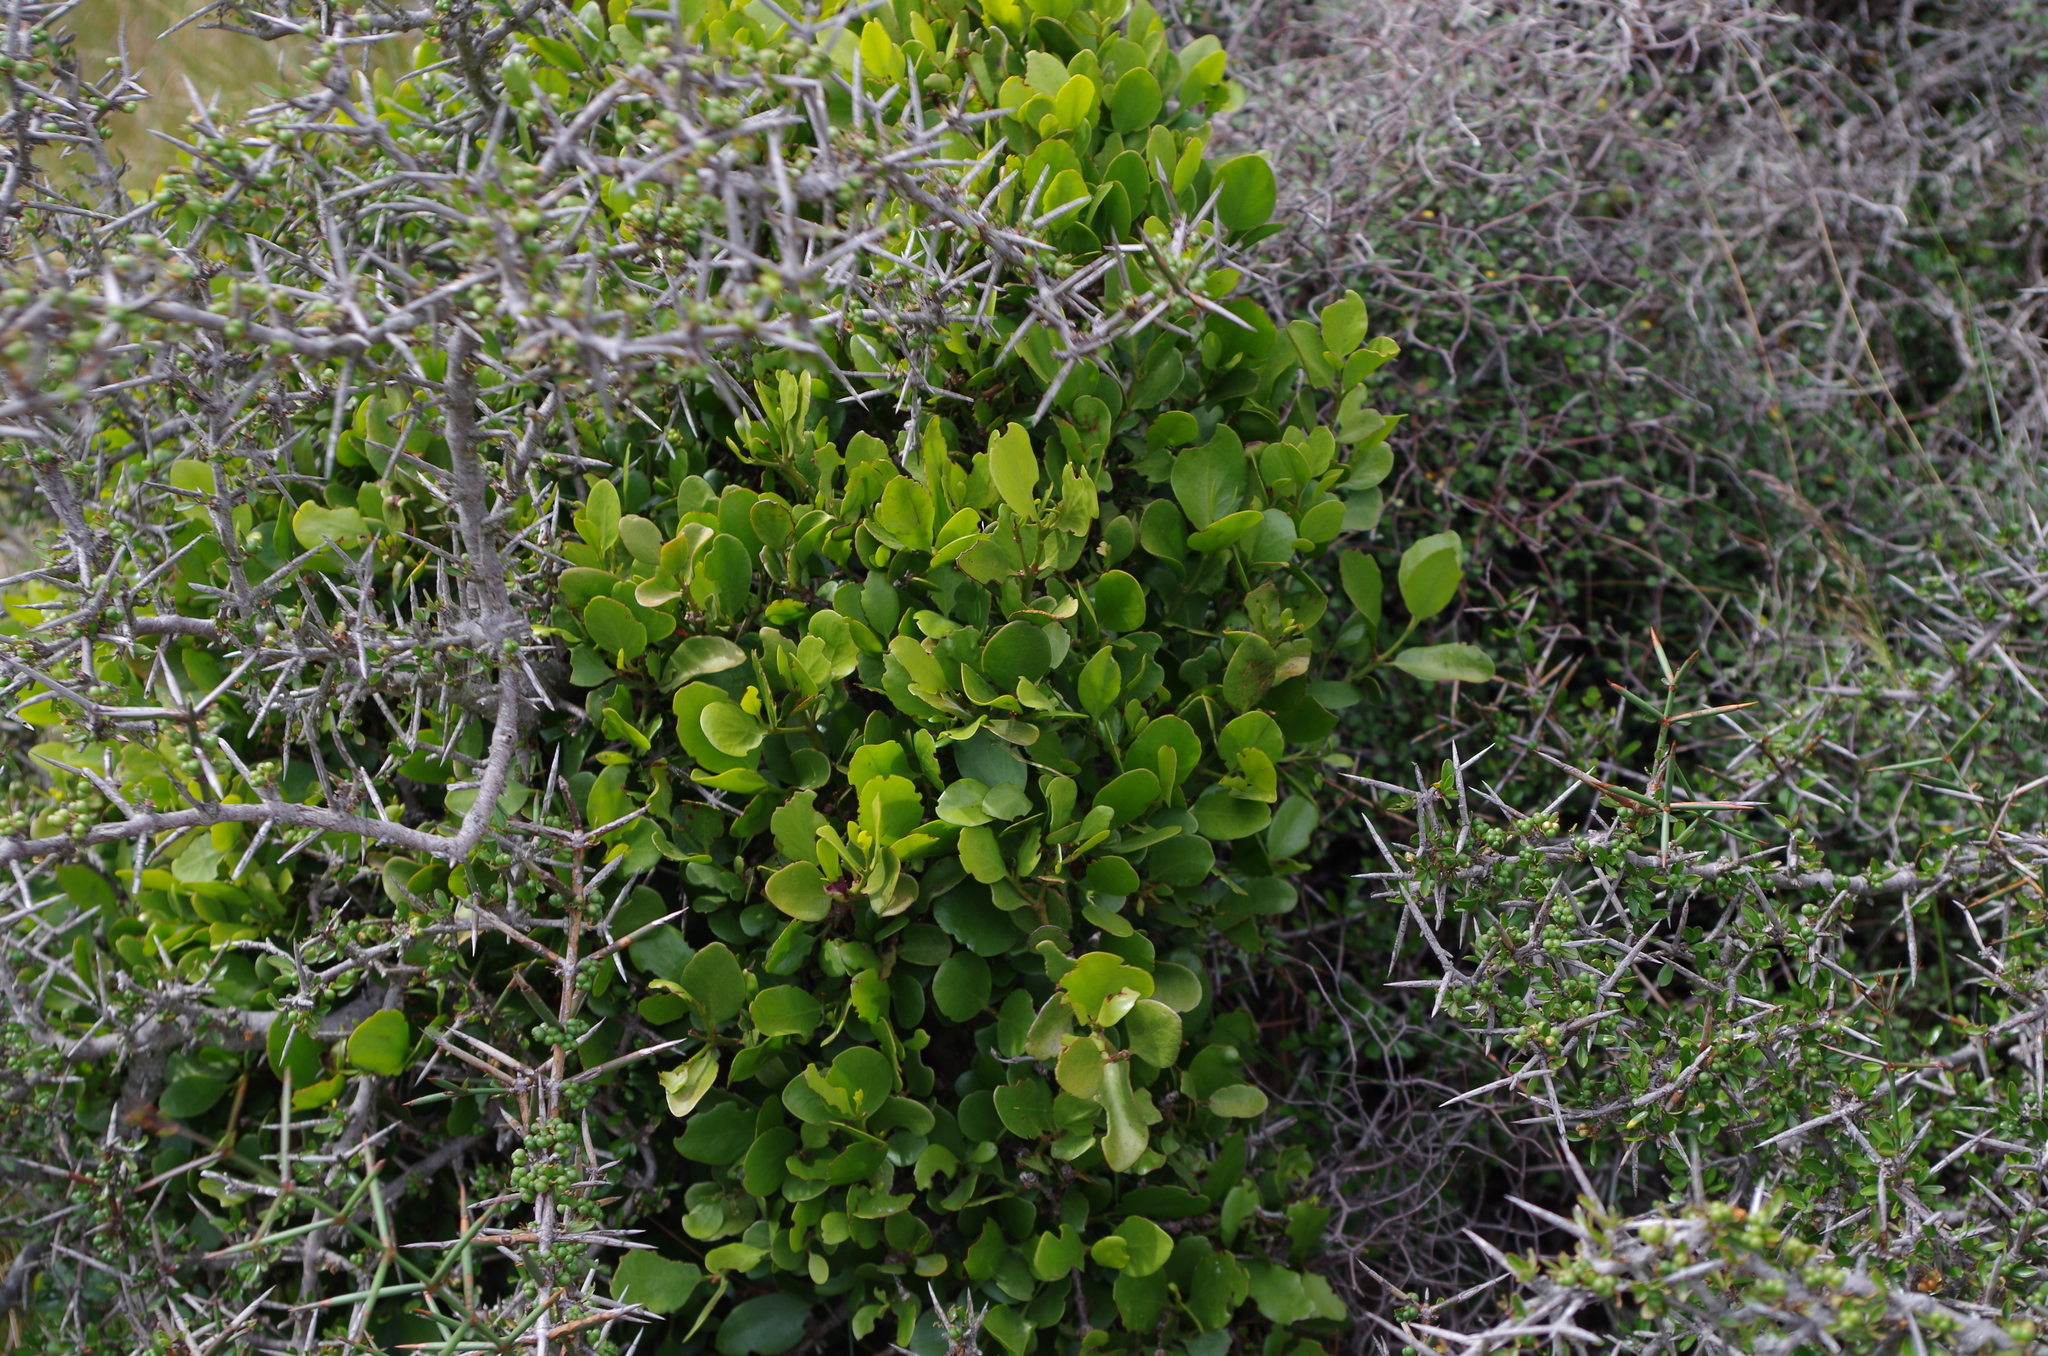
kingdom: Plantae
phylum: Tracheophyta
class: Magnoliopsida
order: Santalales
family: Loranthaceae
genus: Ileostylus
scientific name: Ileostylus micranthus
